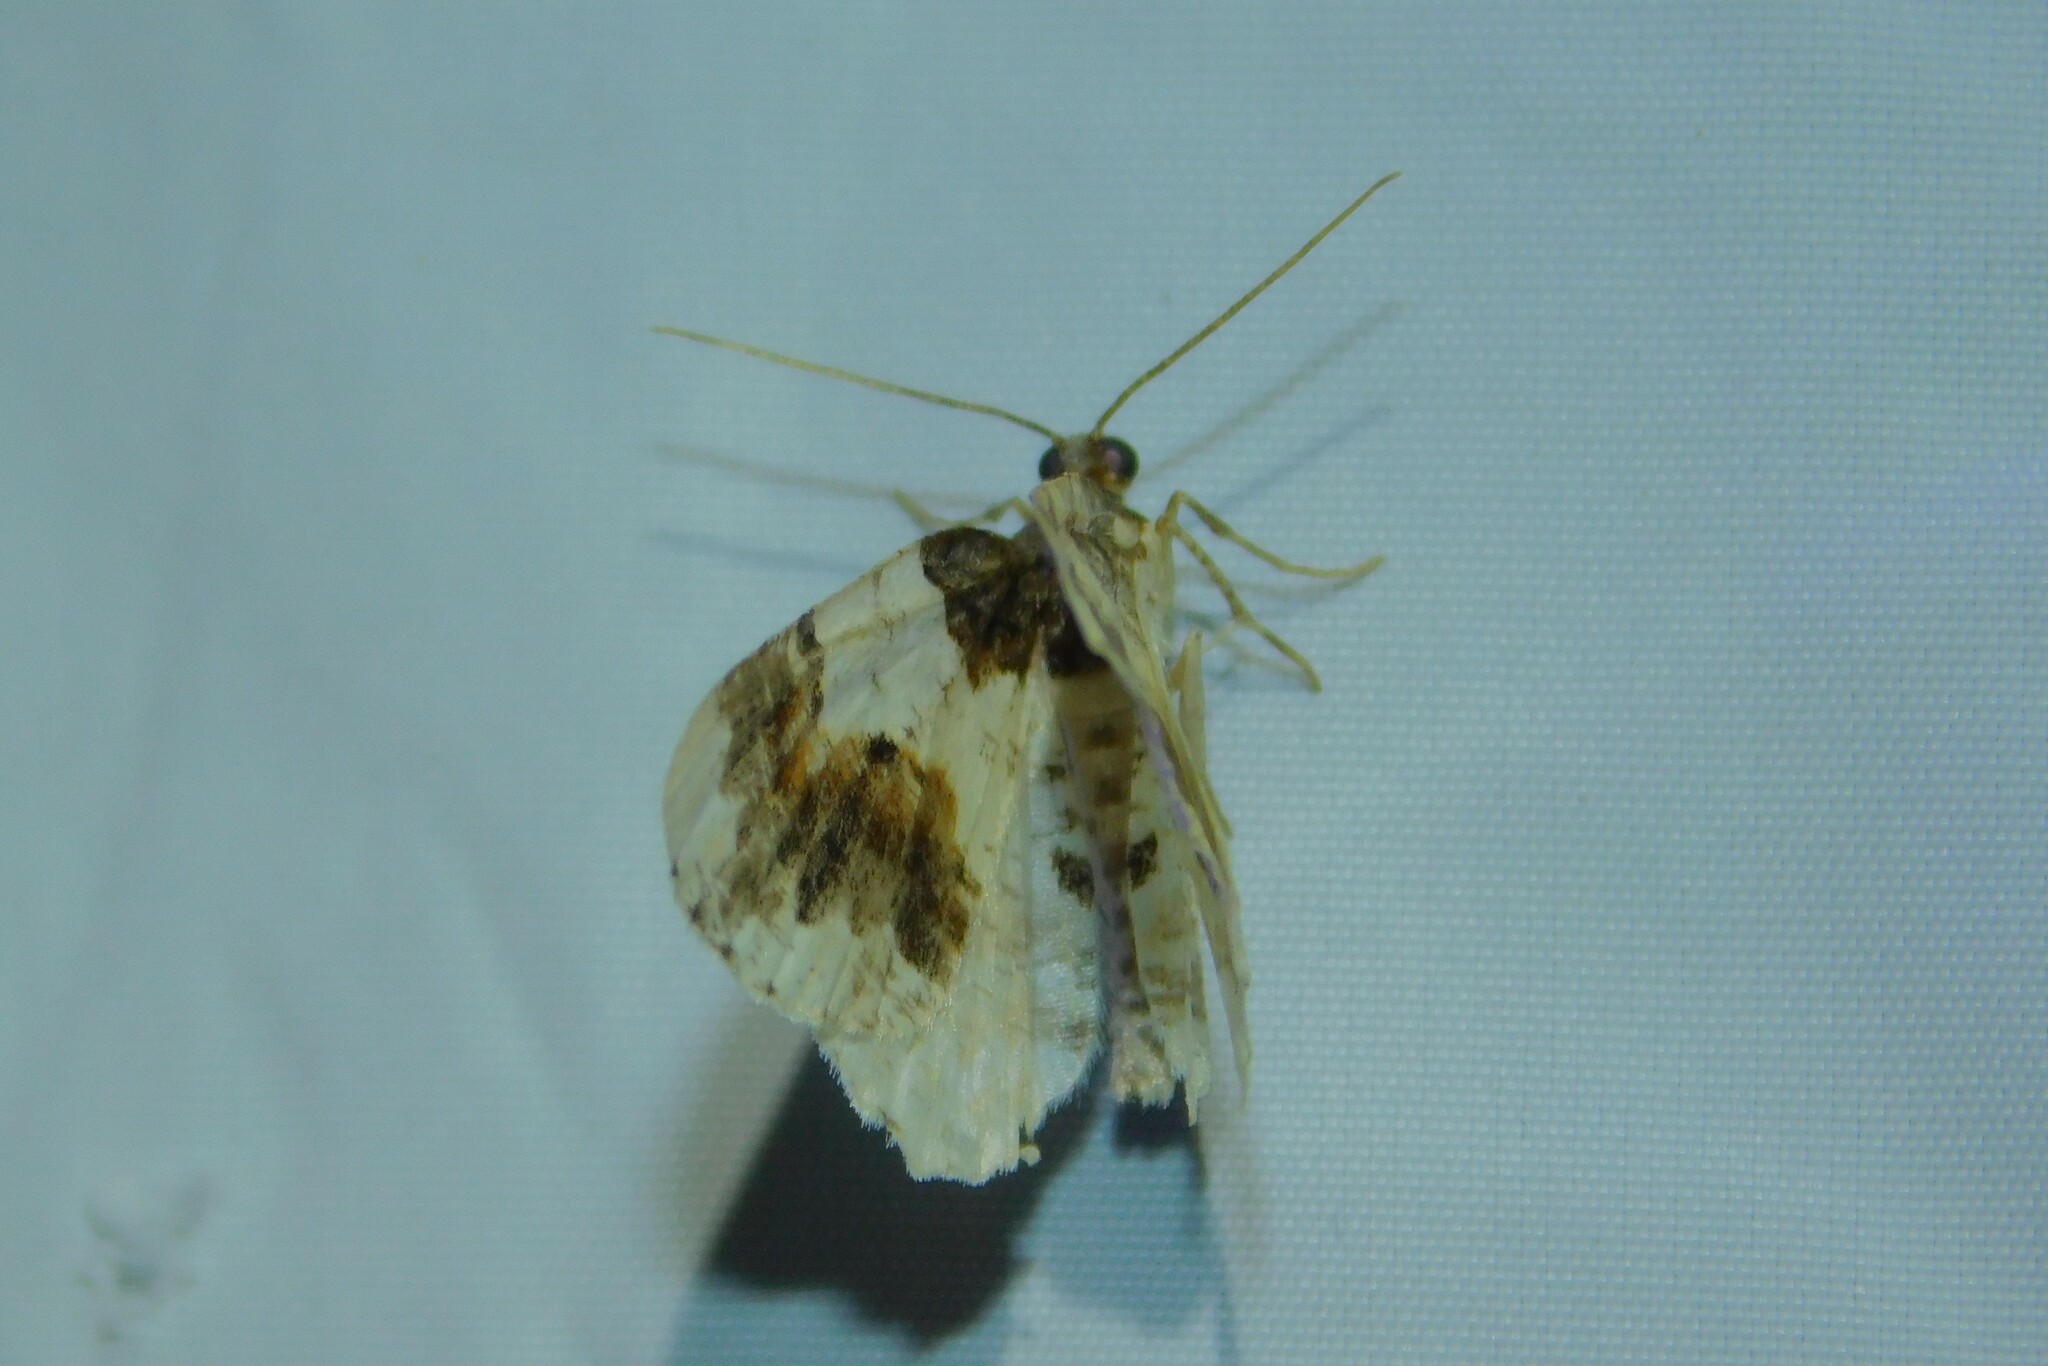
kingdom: Animalia
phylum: Arthropoda
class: Insecta
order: Lepidoptera
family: Geometridae
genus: Ligdia
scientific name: Ligdia adustata
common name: Scorched carpet
